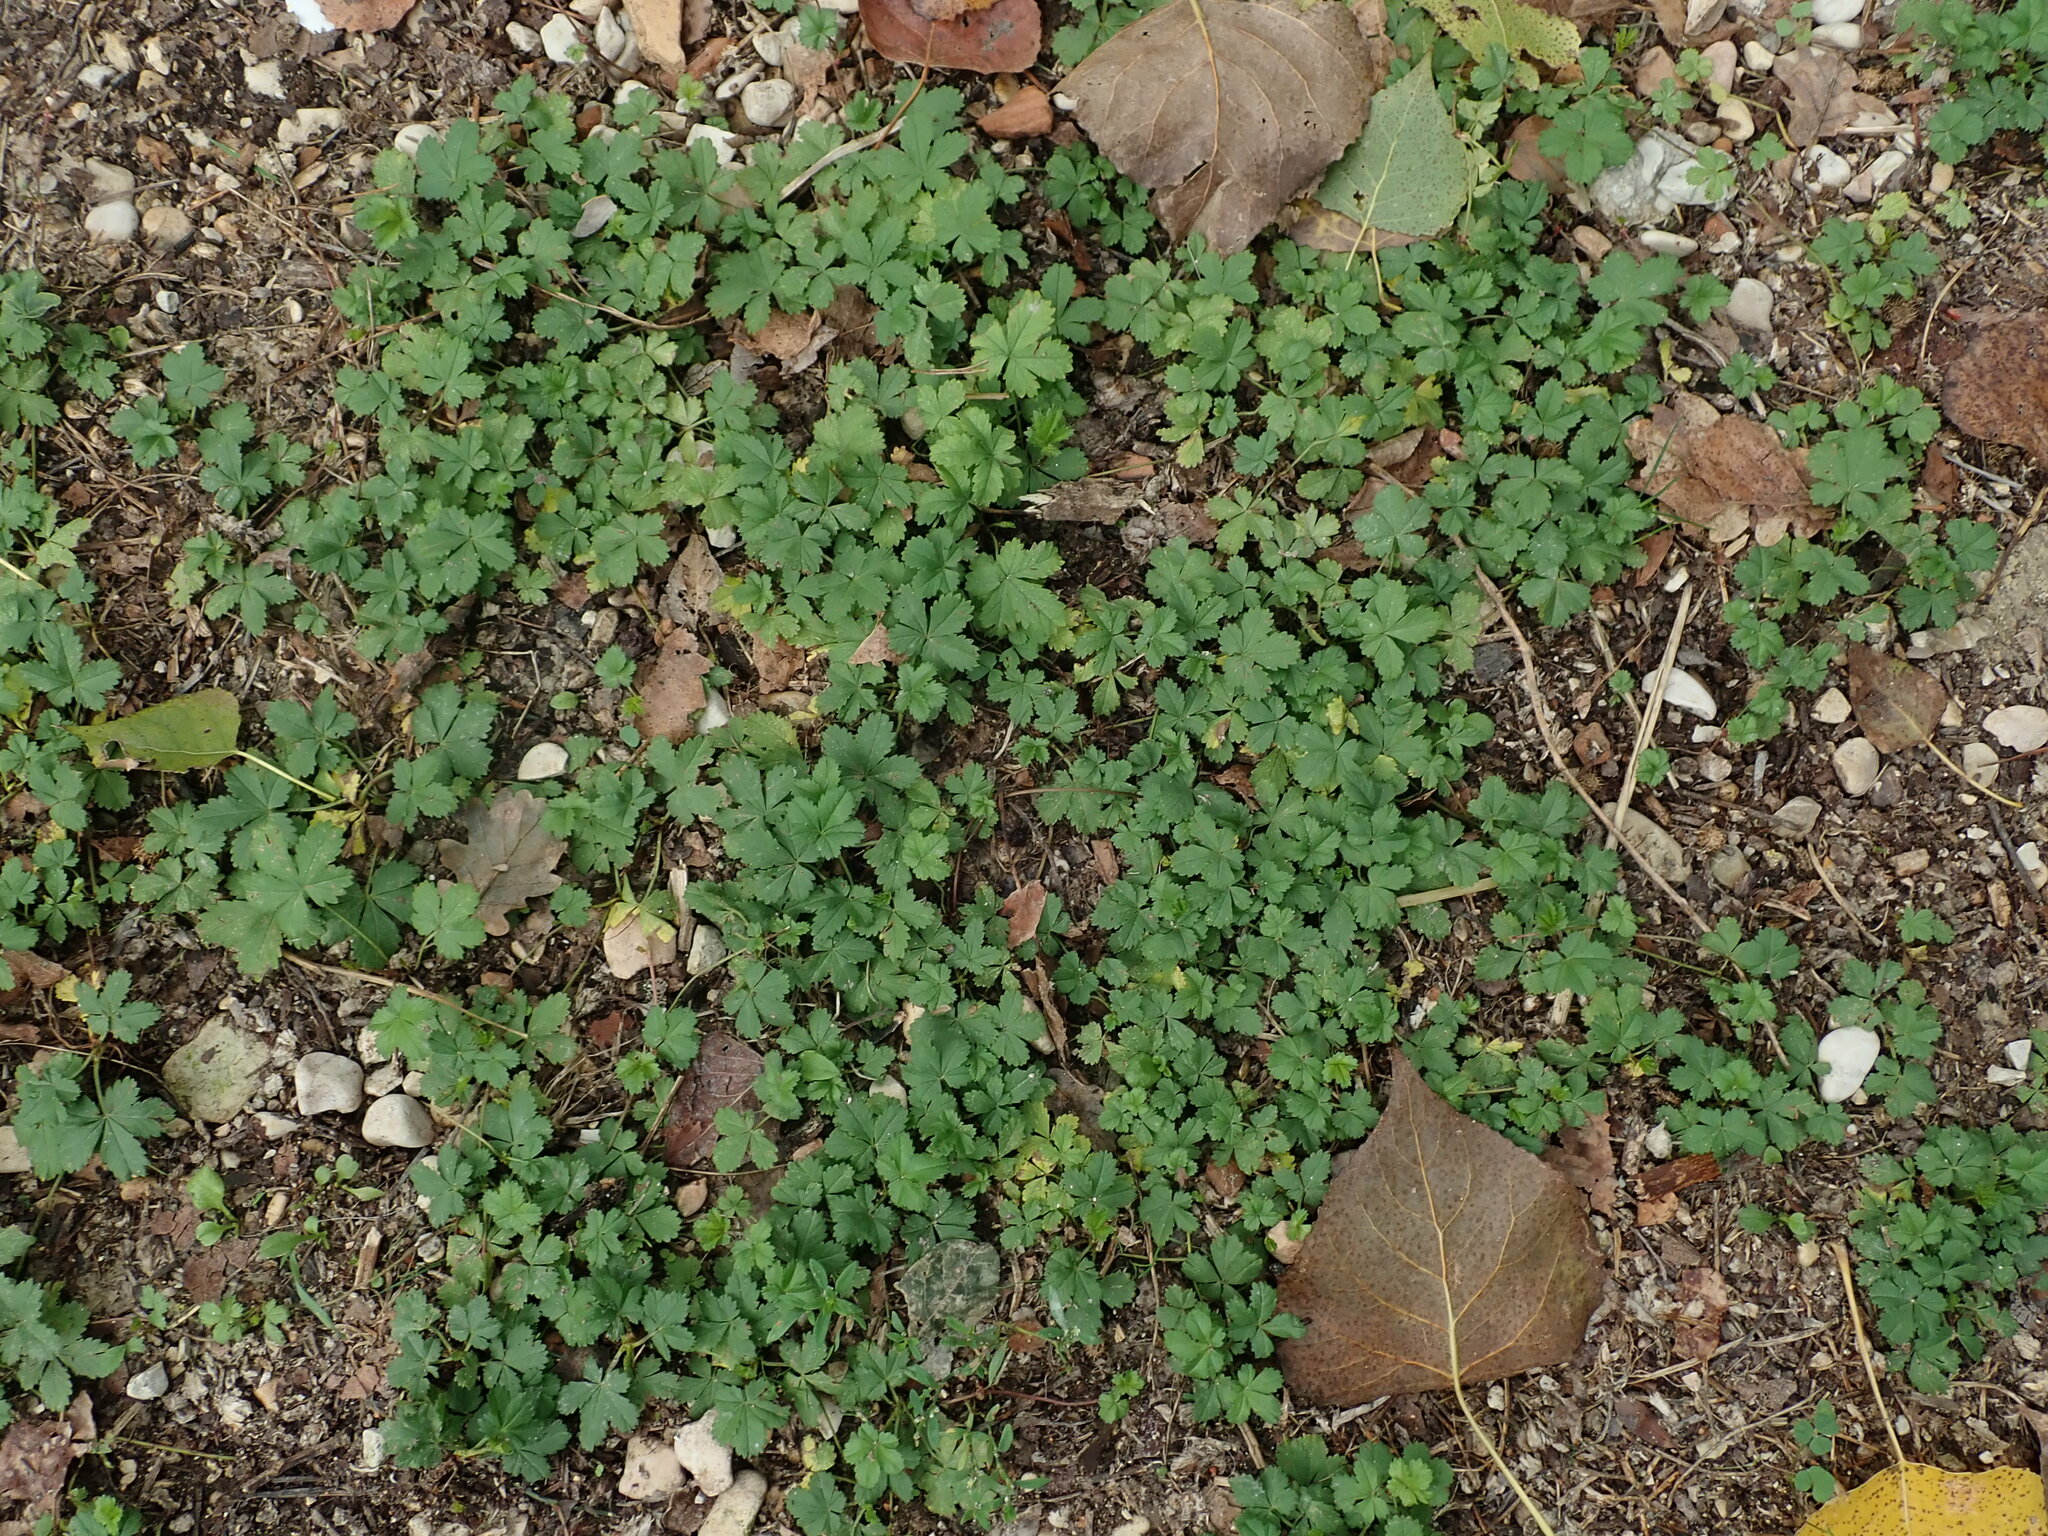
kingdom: Plantae
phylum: Tracheophyta
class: Magnoliopsida
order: Rosales
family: Rosaceae
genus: Potentilla
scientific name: Potentilla reptans
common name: Creeping cinquefoil
